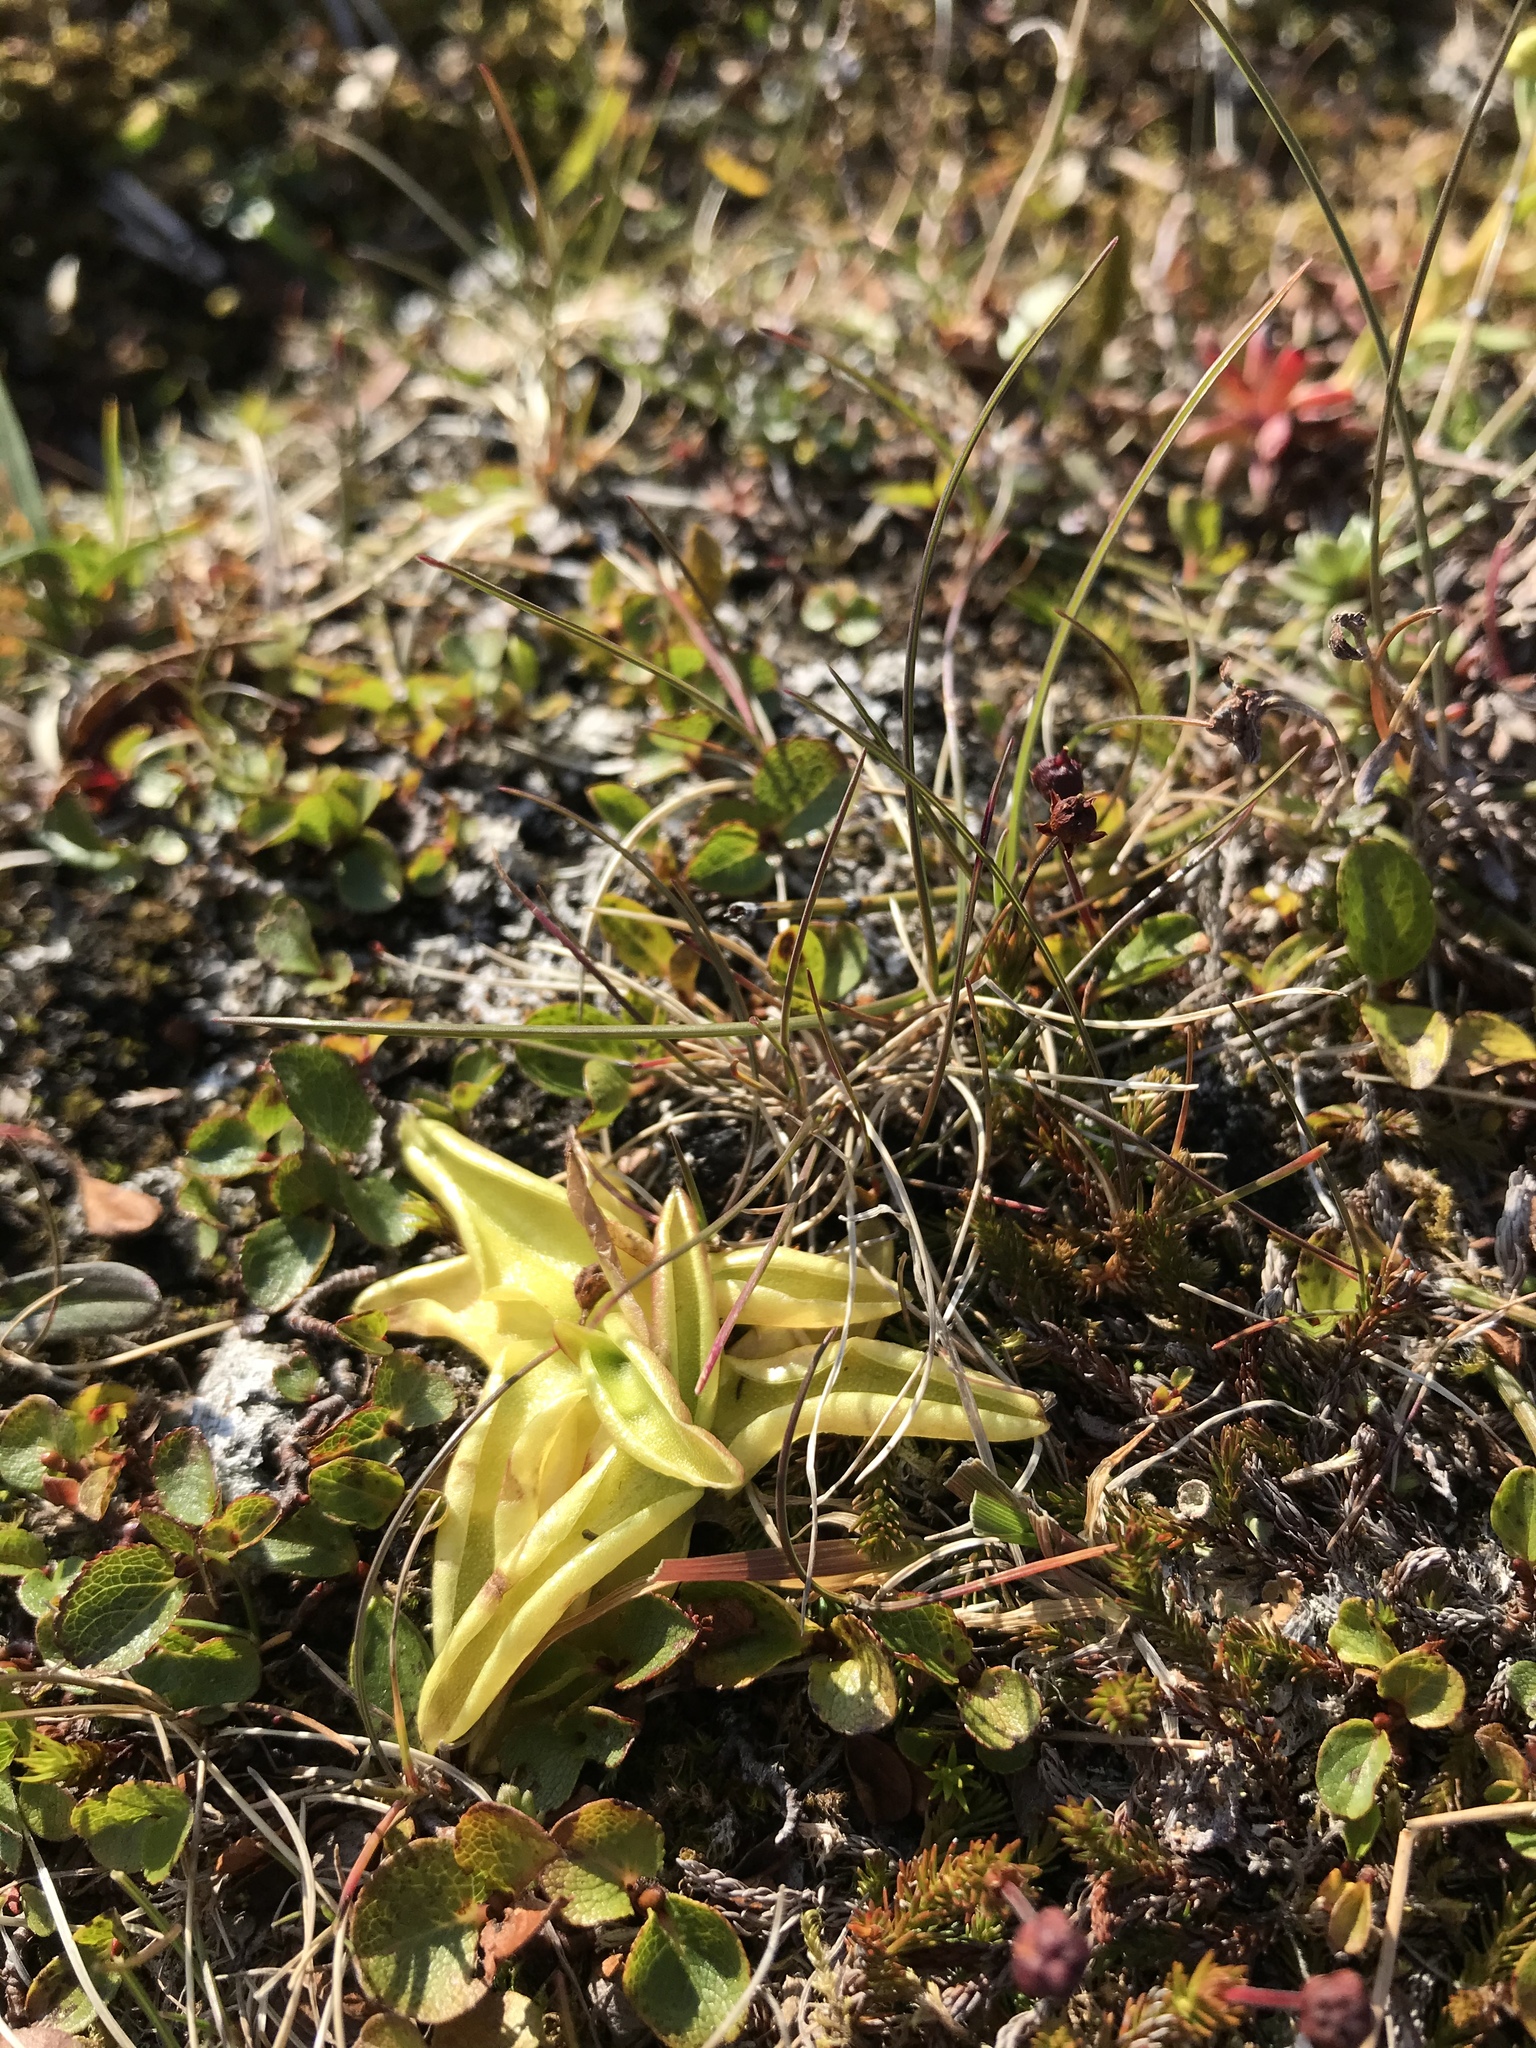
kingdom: Plantae
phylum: Tracheophyta
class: Magnoliopsida
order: Lamiales
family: Lentibulariaceae
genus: Pinguicula
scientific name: Pinguicula vulgaris
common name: Common butterwort
